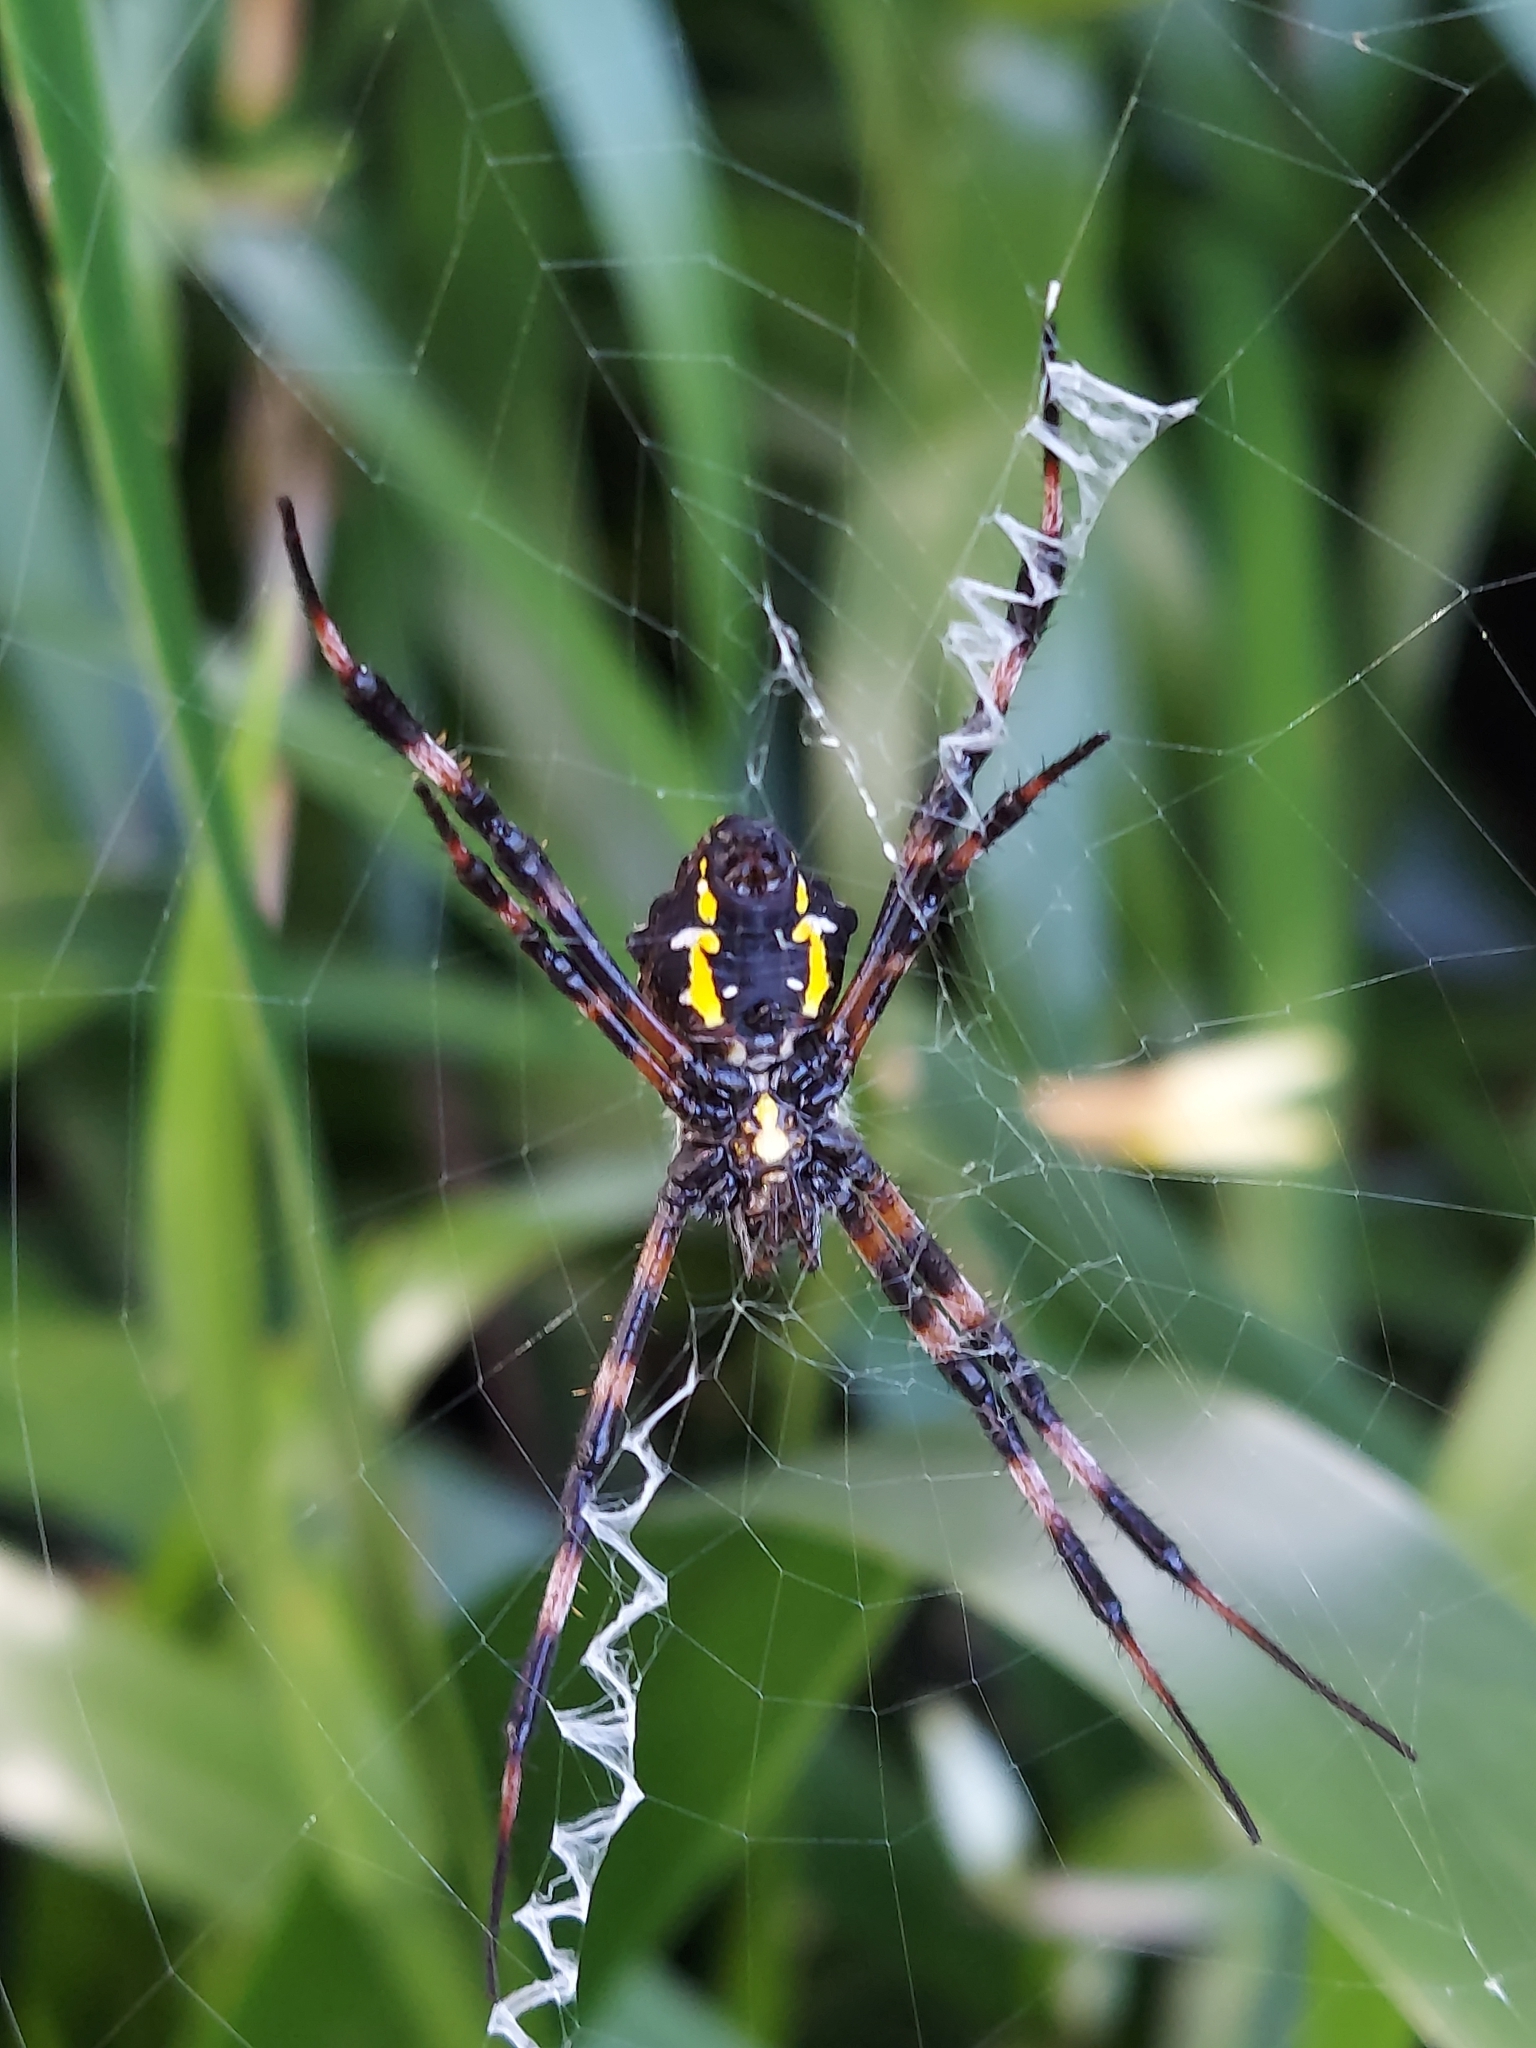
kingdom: Animalia
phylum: Arthropoda
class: Arachnida
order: Araneae
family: Araneidae
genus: Argiope
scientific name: Argiope appensa
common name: Garden spider
